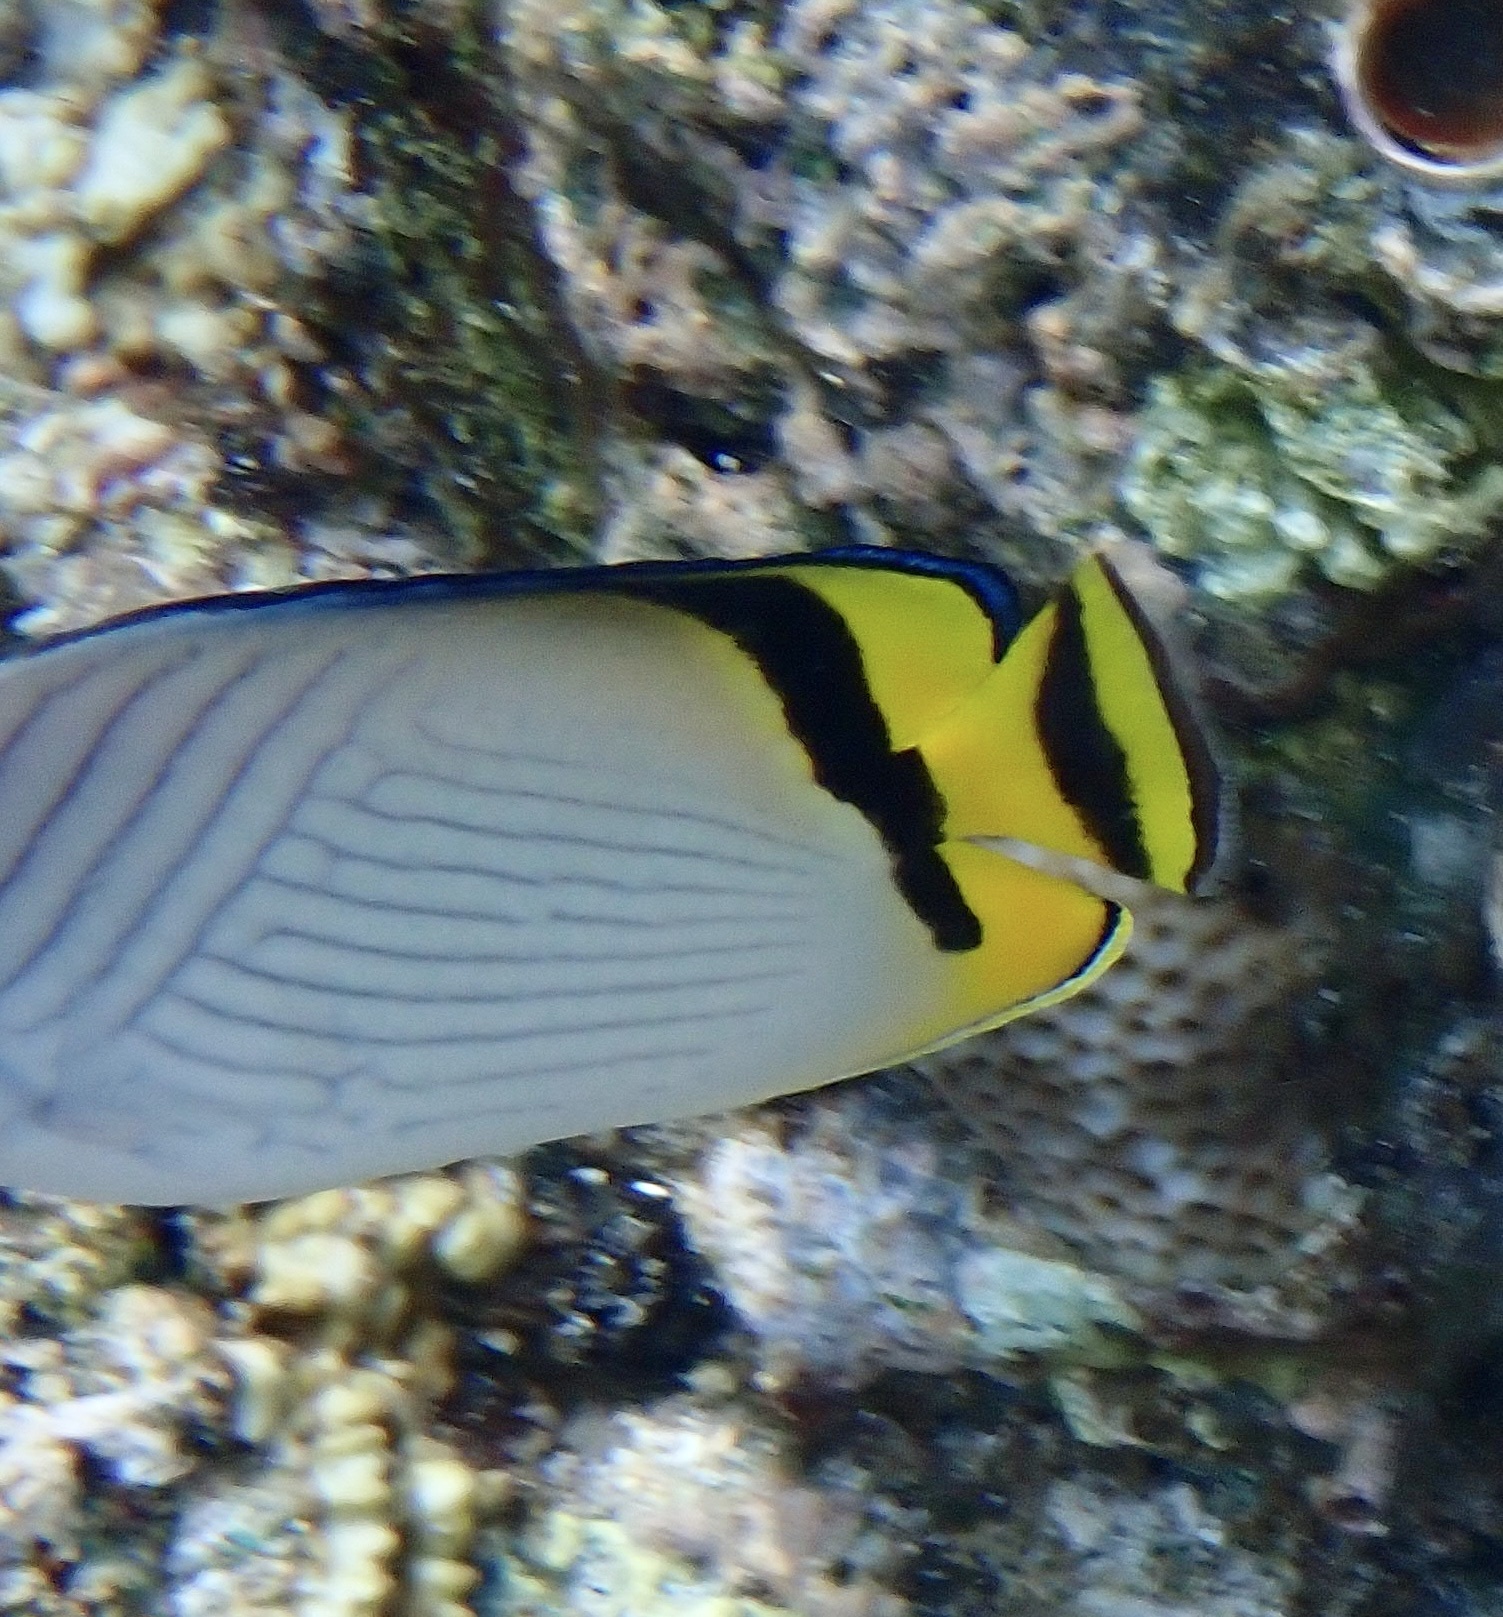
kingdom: Animalia
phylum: Chordata
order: Perciformes
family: Chaetodontidae
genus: Chaetodon
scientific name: Chaetodon vagabundus
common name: Vagabond butterflyfish
